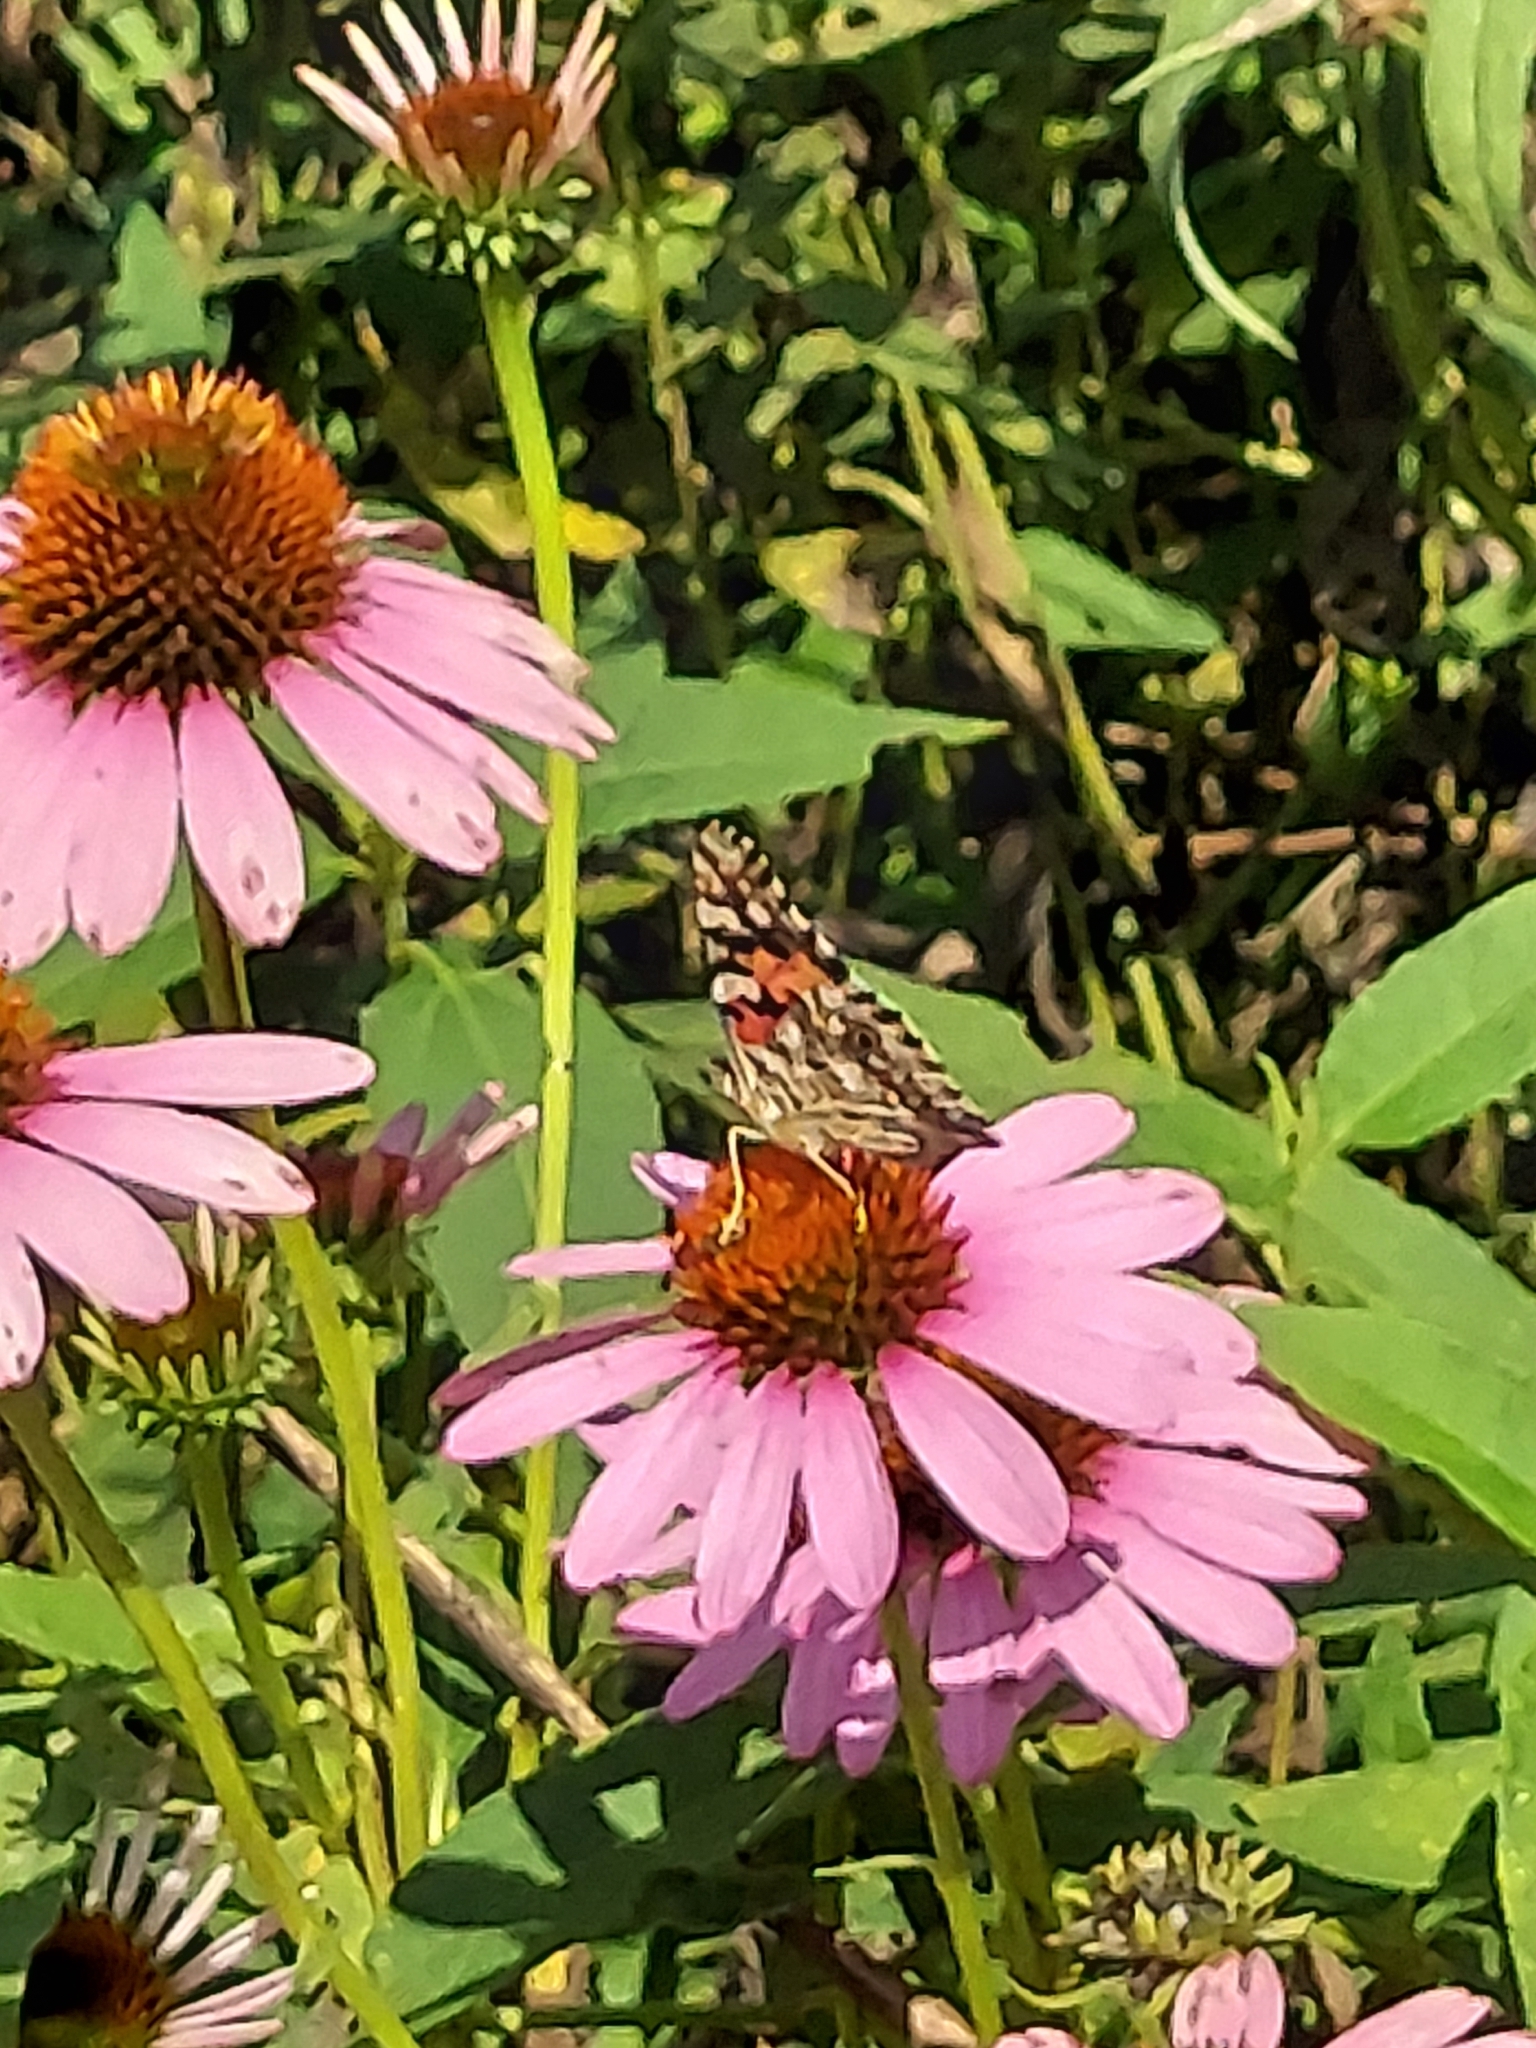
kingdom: Animalia
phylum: Arthropoda
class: Insecta
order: Lepidoptera
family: Nymphalidae
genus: Vanessa
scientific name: Vanessa cardui
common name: Painted lady
